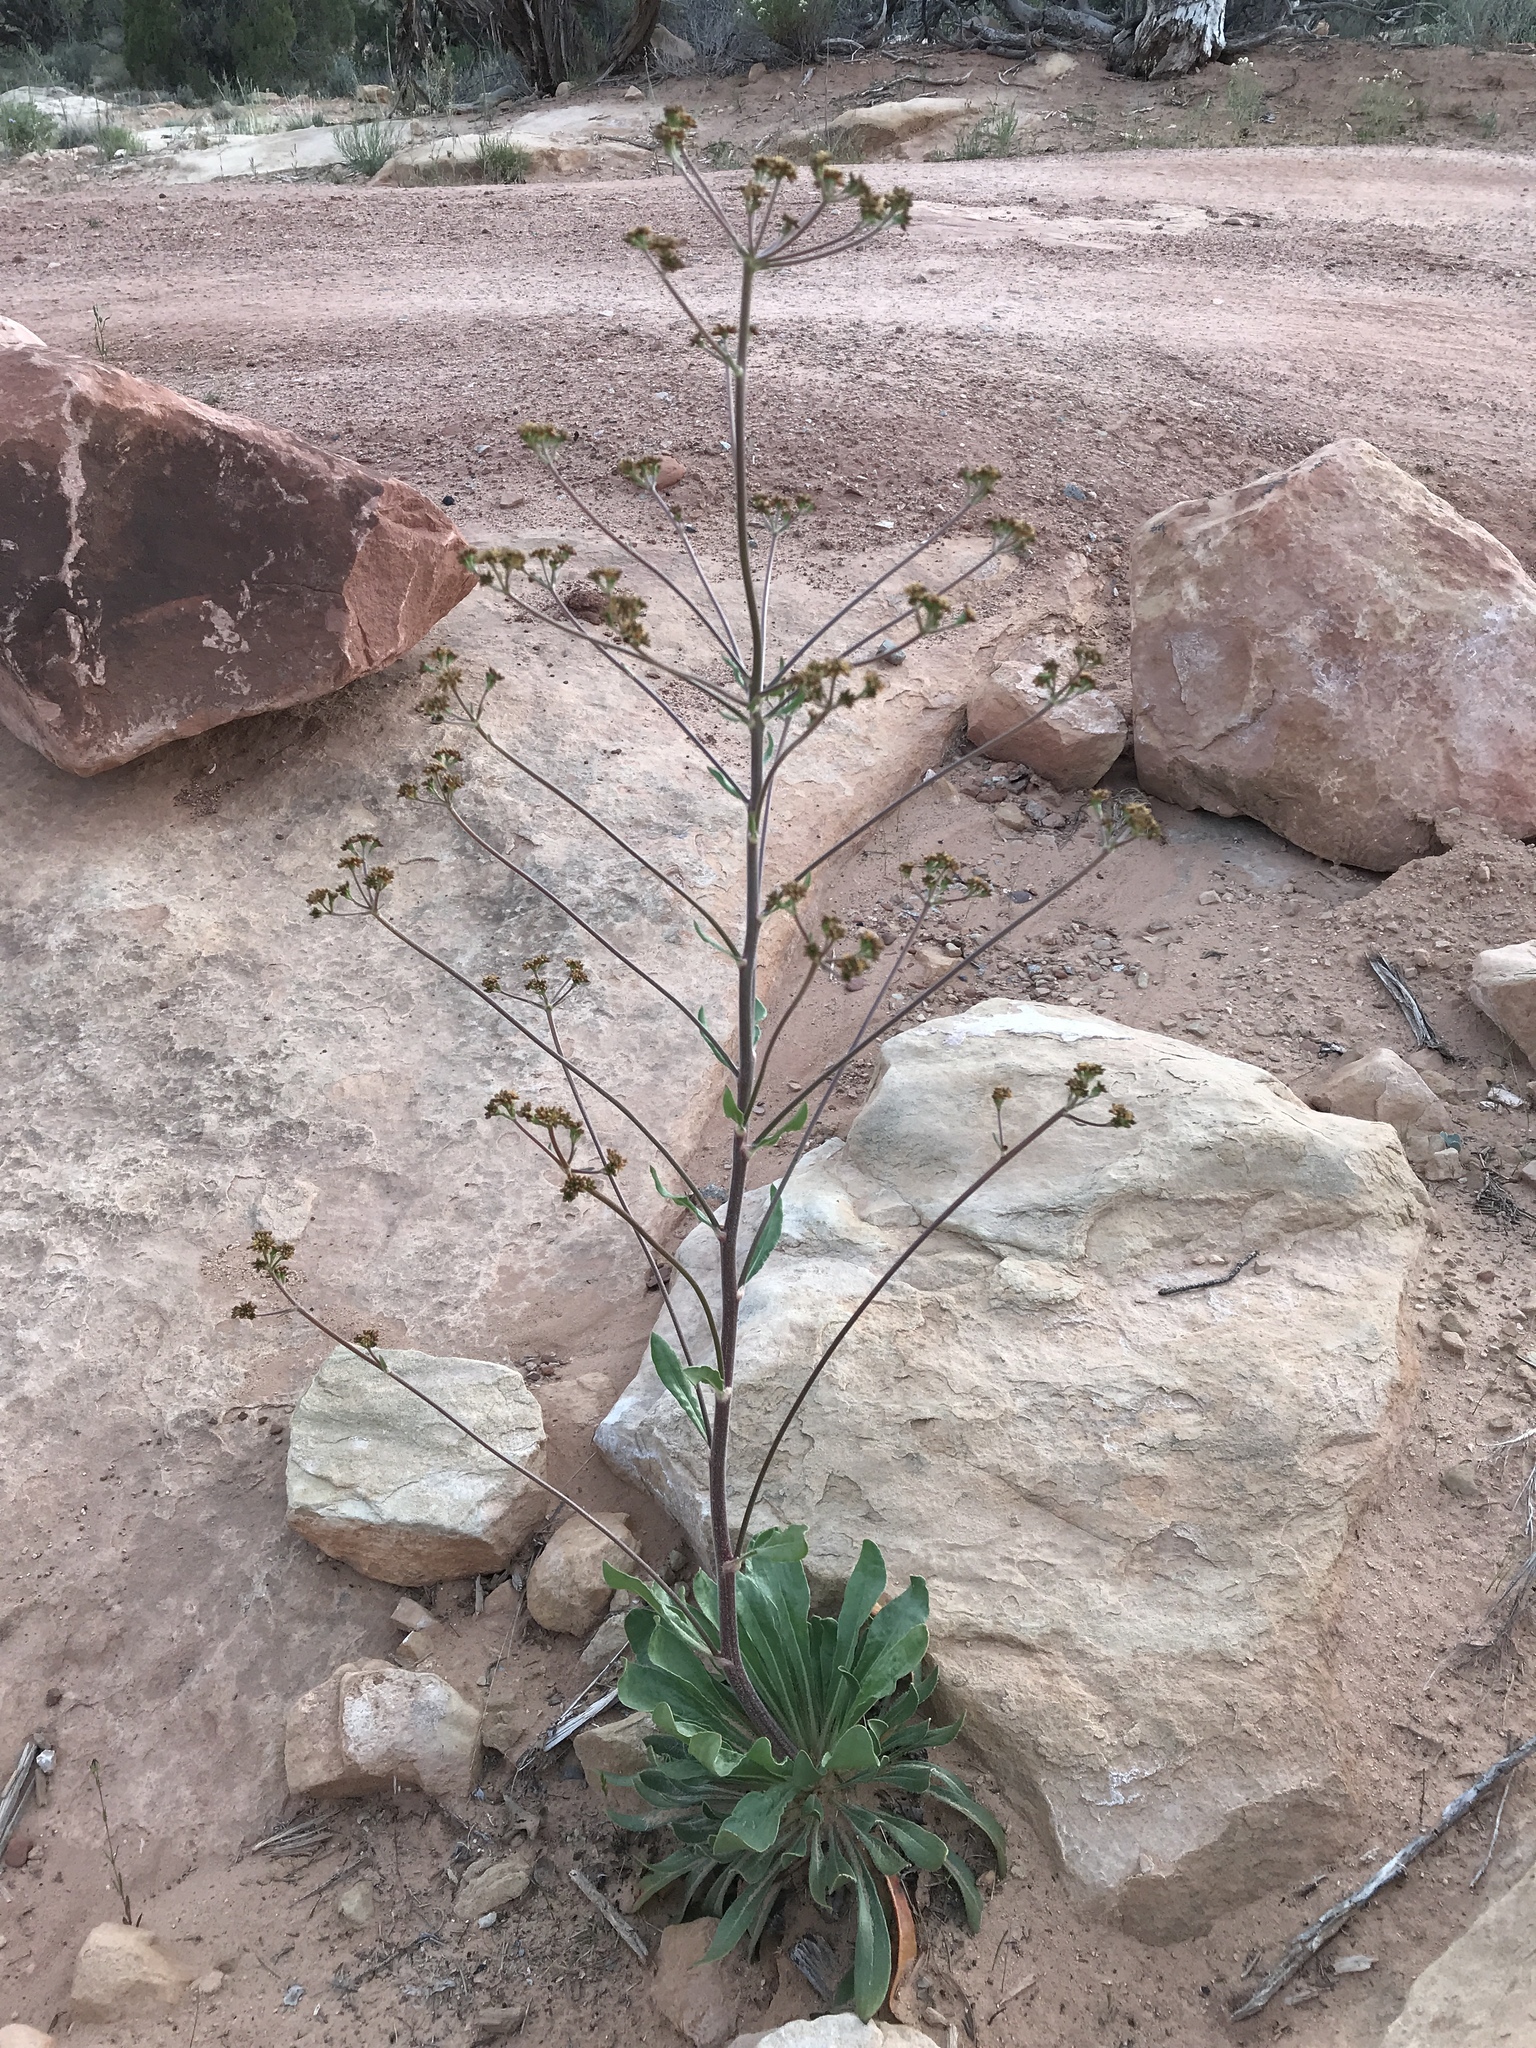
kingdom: Plantae
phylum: Tracheophyta
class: Magnoliopsida
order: Caryophyllales
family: Polygonaceae
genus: Eriogonum
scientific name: Eriogonum alatum
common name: Winged eriogonum
